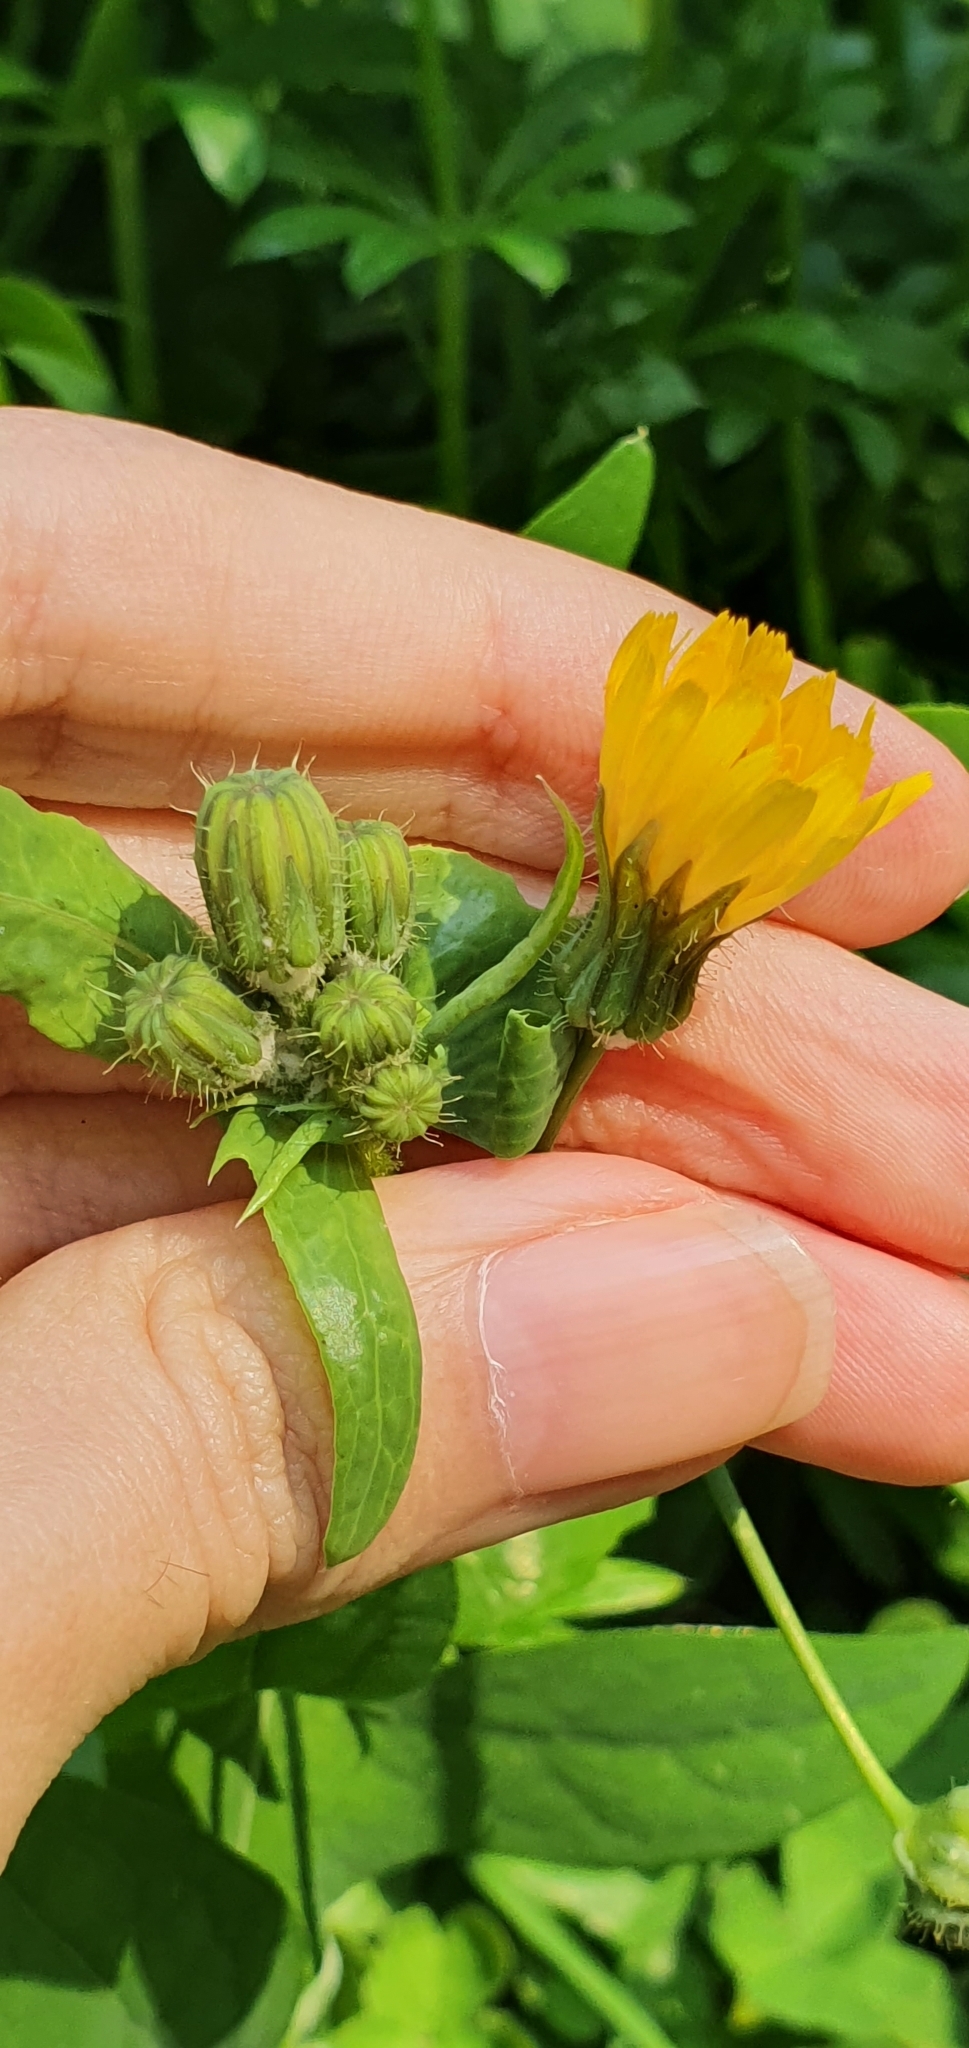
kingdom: Plantae
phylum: Tracheophyta
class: Magnoliopsida
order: Asterales
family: Asteraceae
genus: Sonchus
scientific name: Sonchus tenerrimus
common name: Clammy sowthistle
